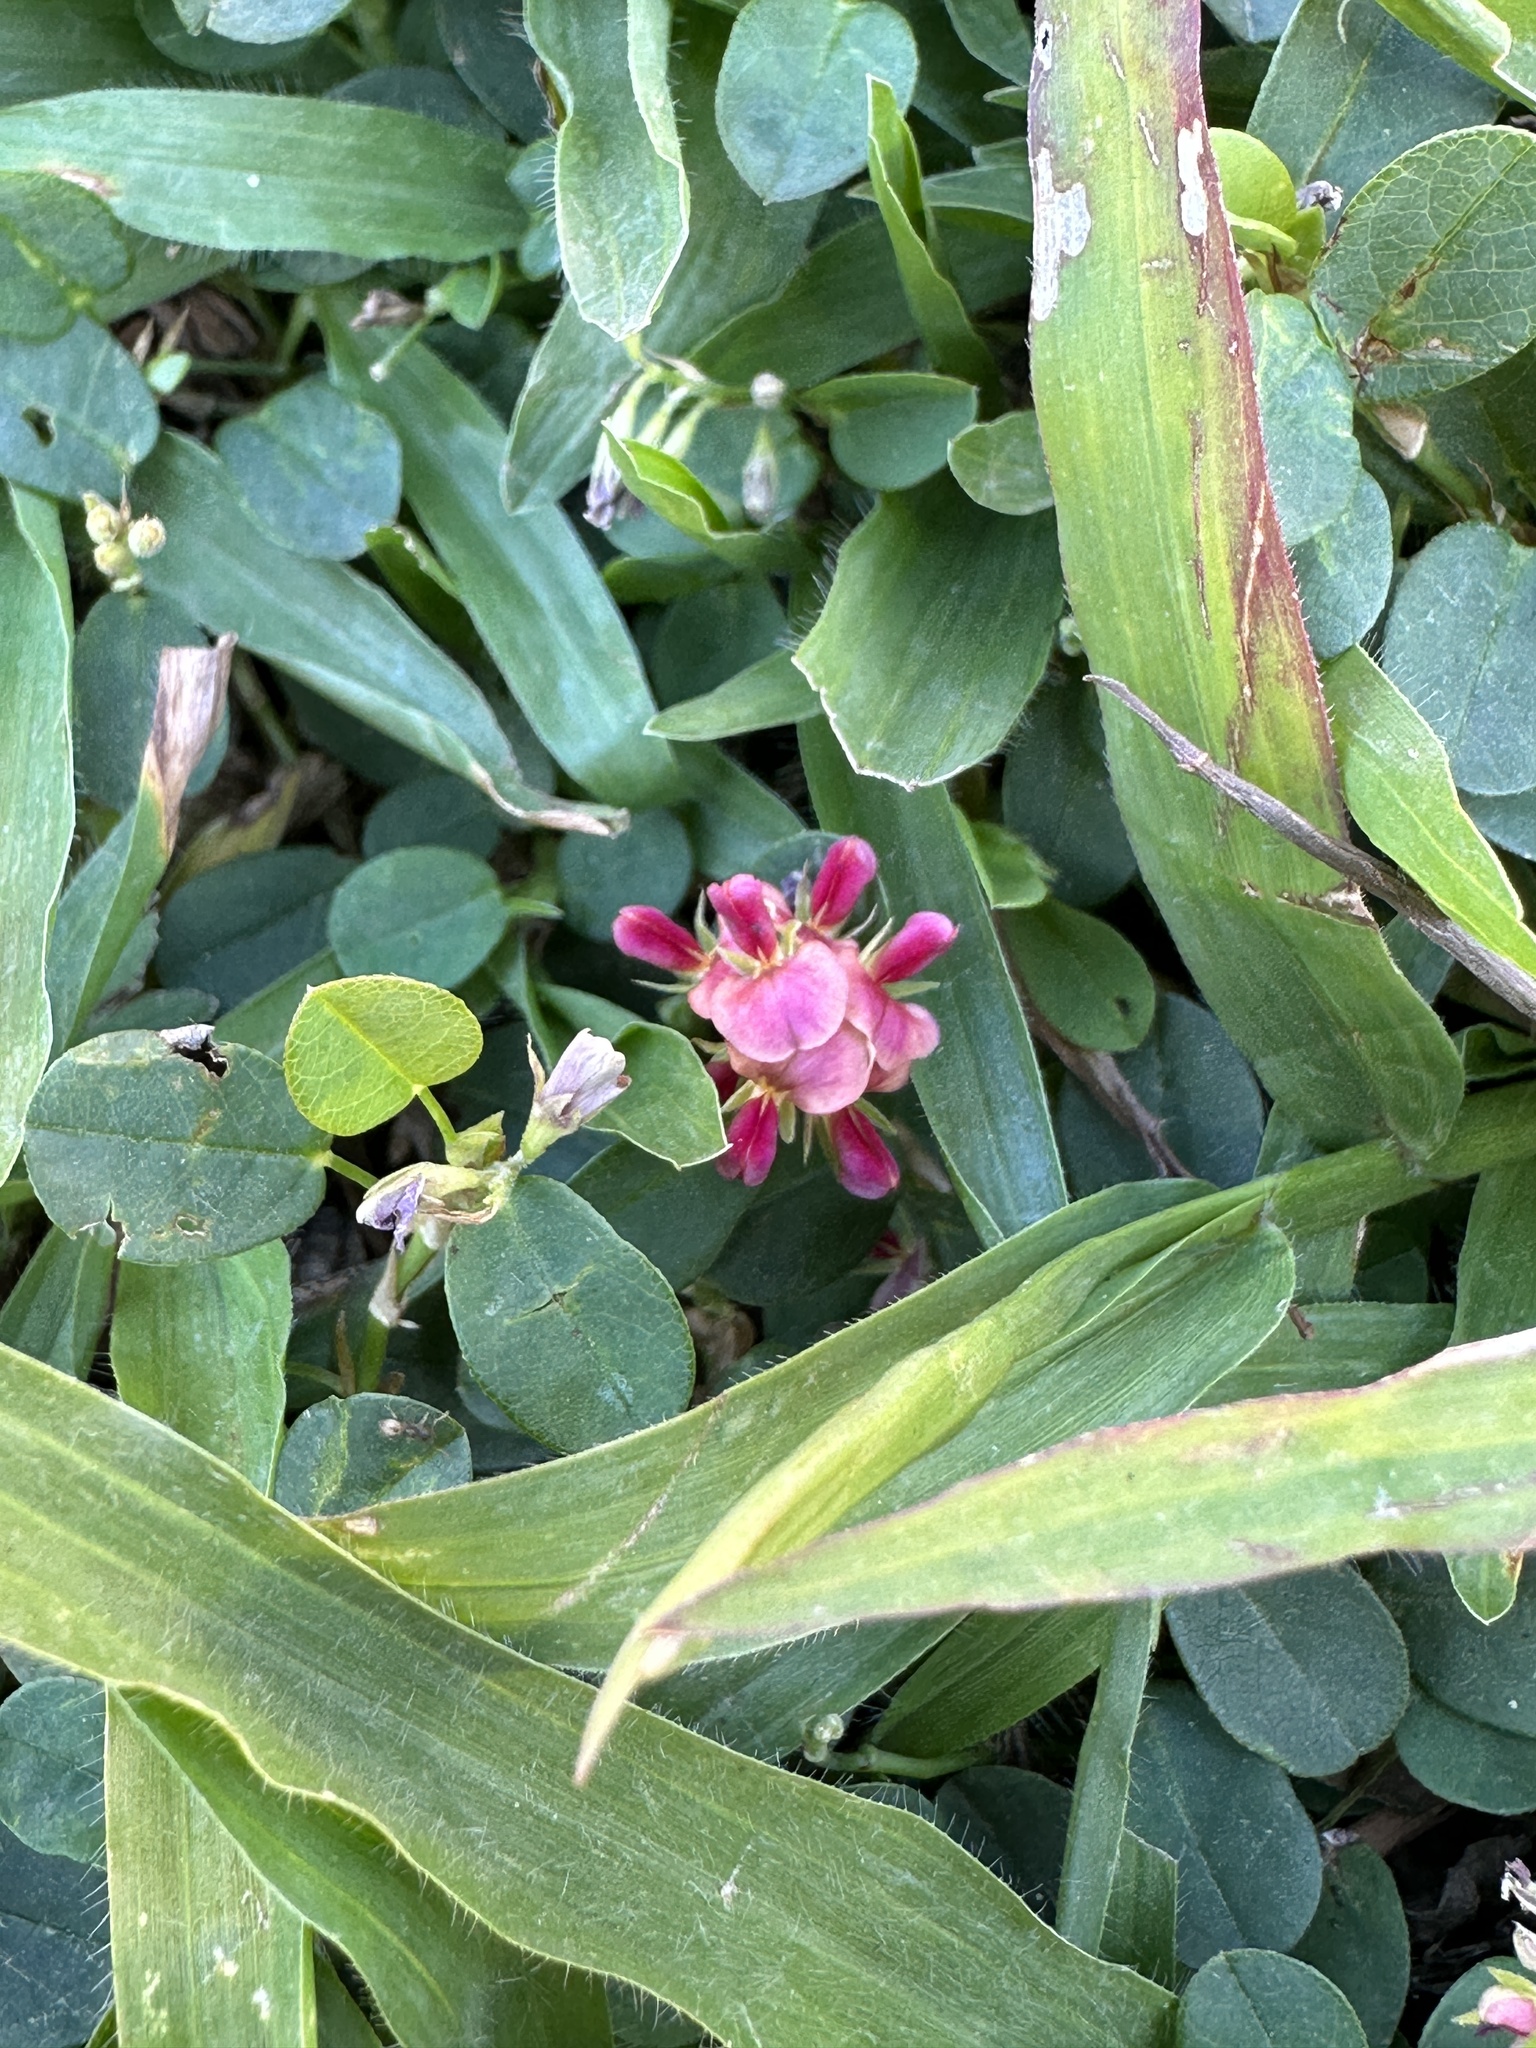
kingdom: Plantae
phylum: Tracheophyta
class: Magnoliopsida
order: Fabales
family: Fabaceae
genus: Alysicarpus
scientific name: Alysicarpus vaginalis
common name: White moneywort
